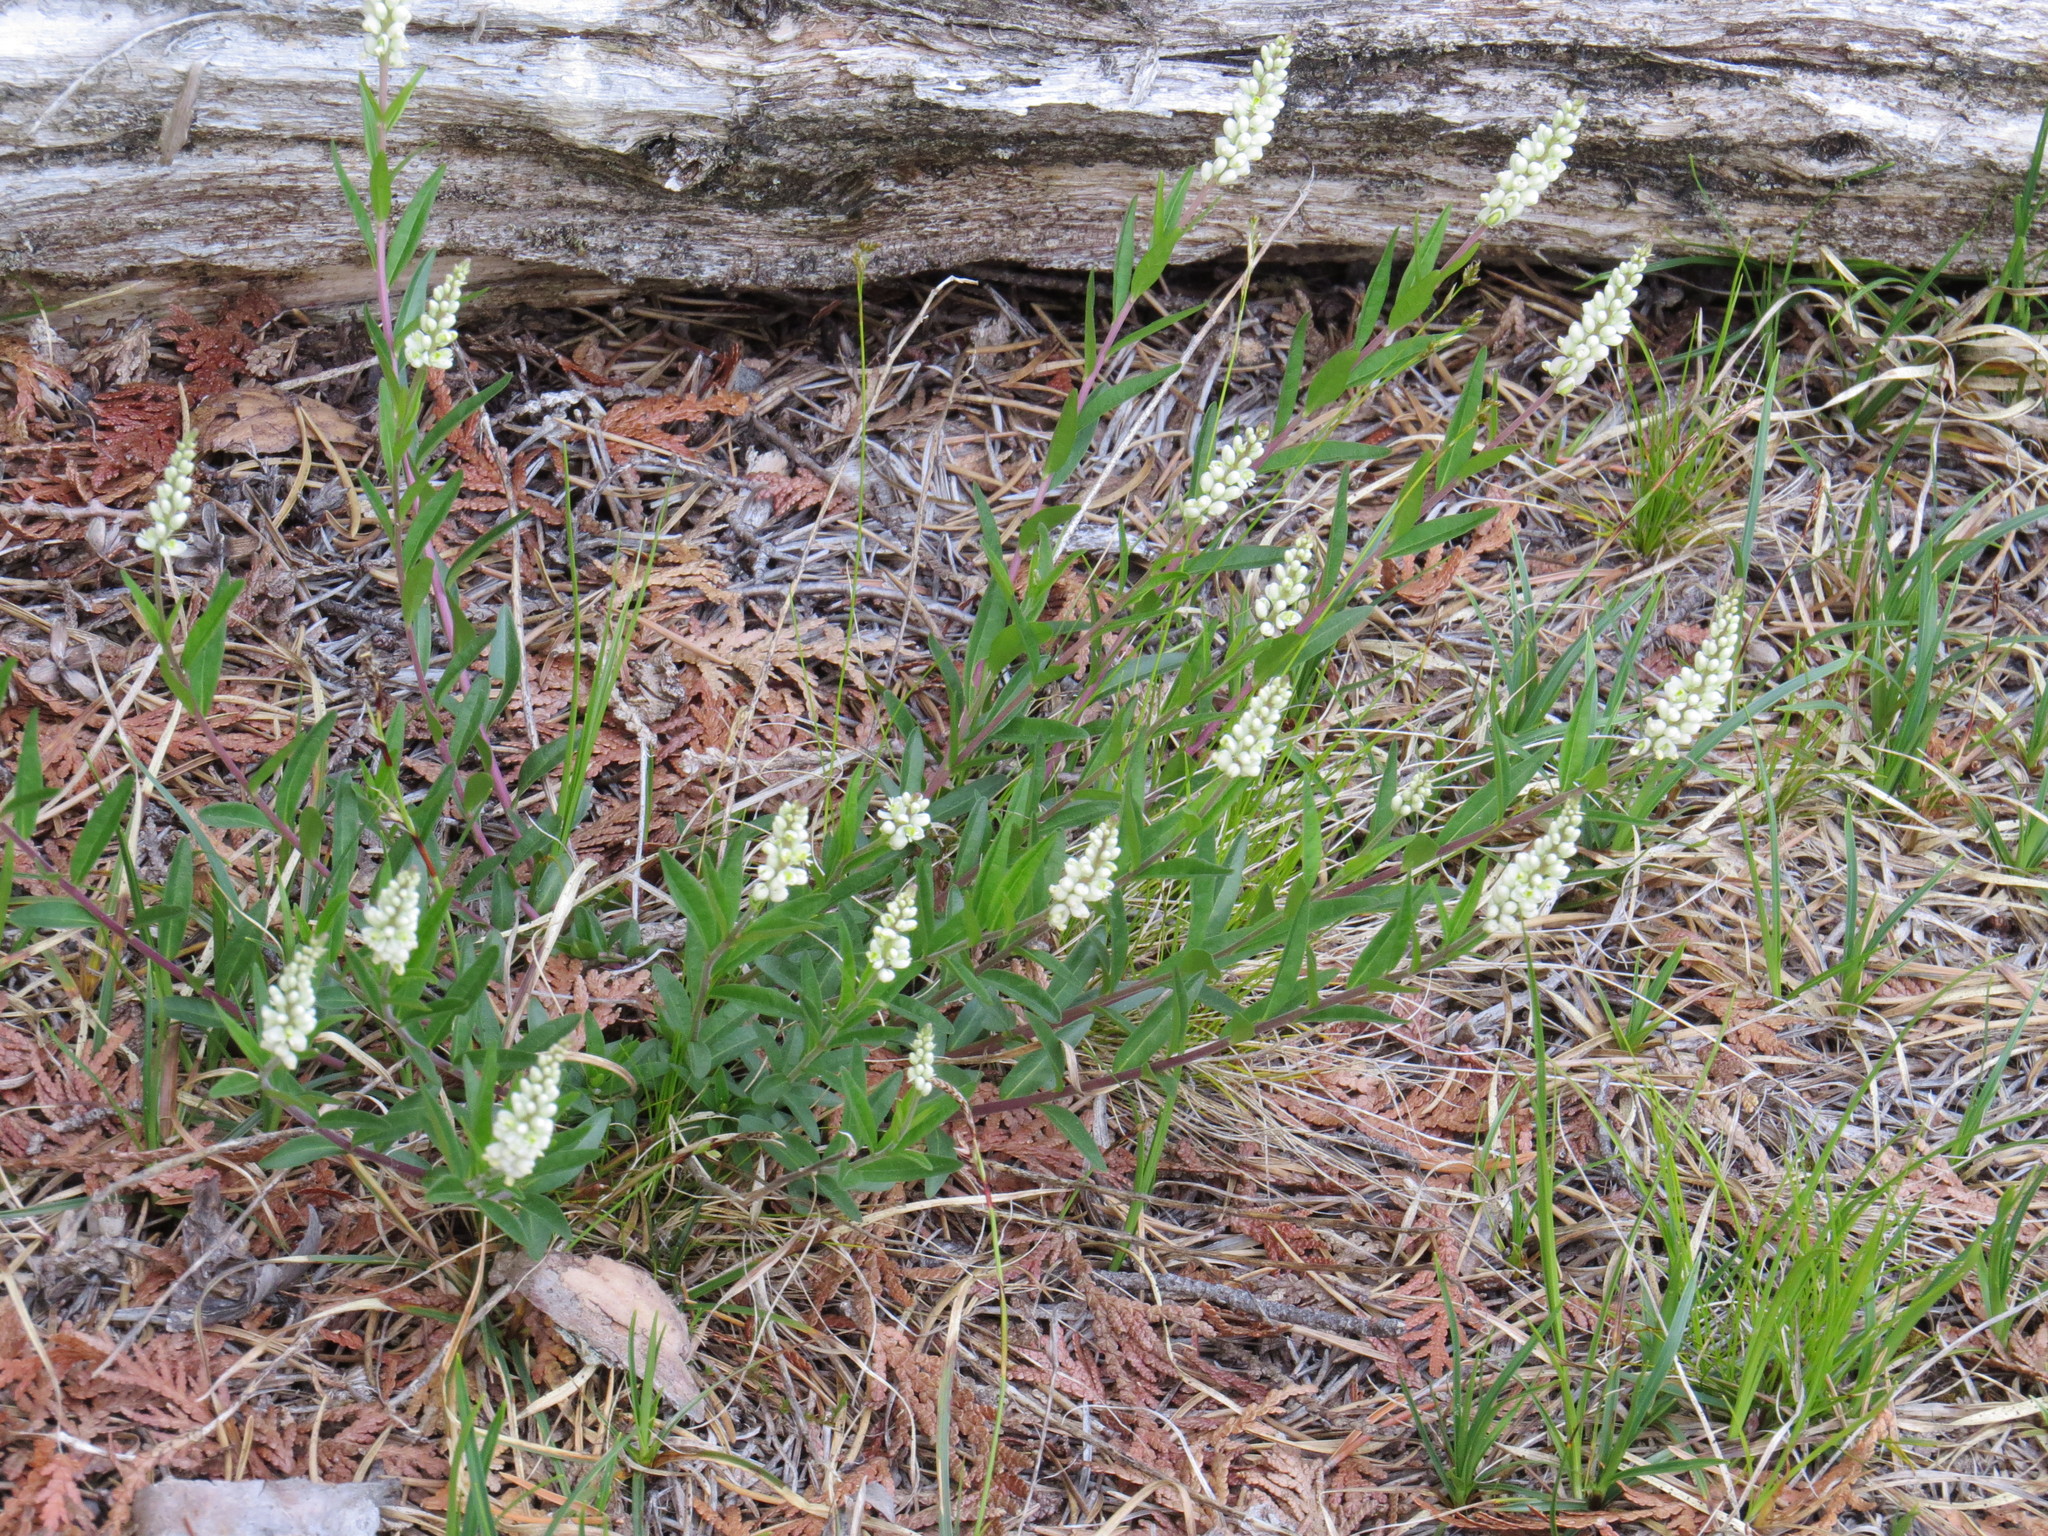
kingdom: Plantae
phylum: Tracheophyta
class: Magnoliopsida
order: Fabales
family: Polygalaceae
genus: Polygala
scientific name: Polygala senega
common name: Seneca snakeroot
